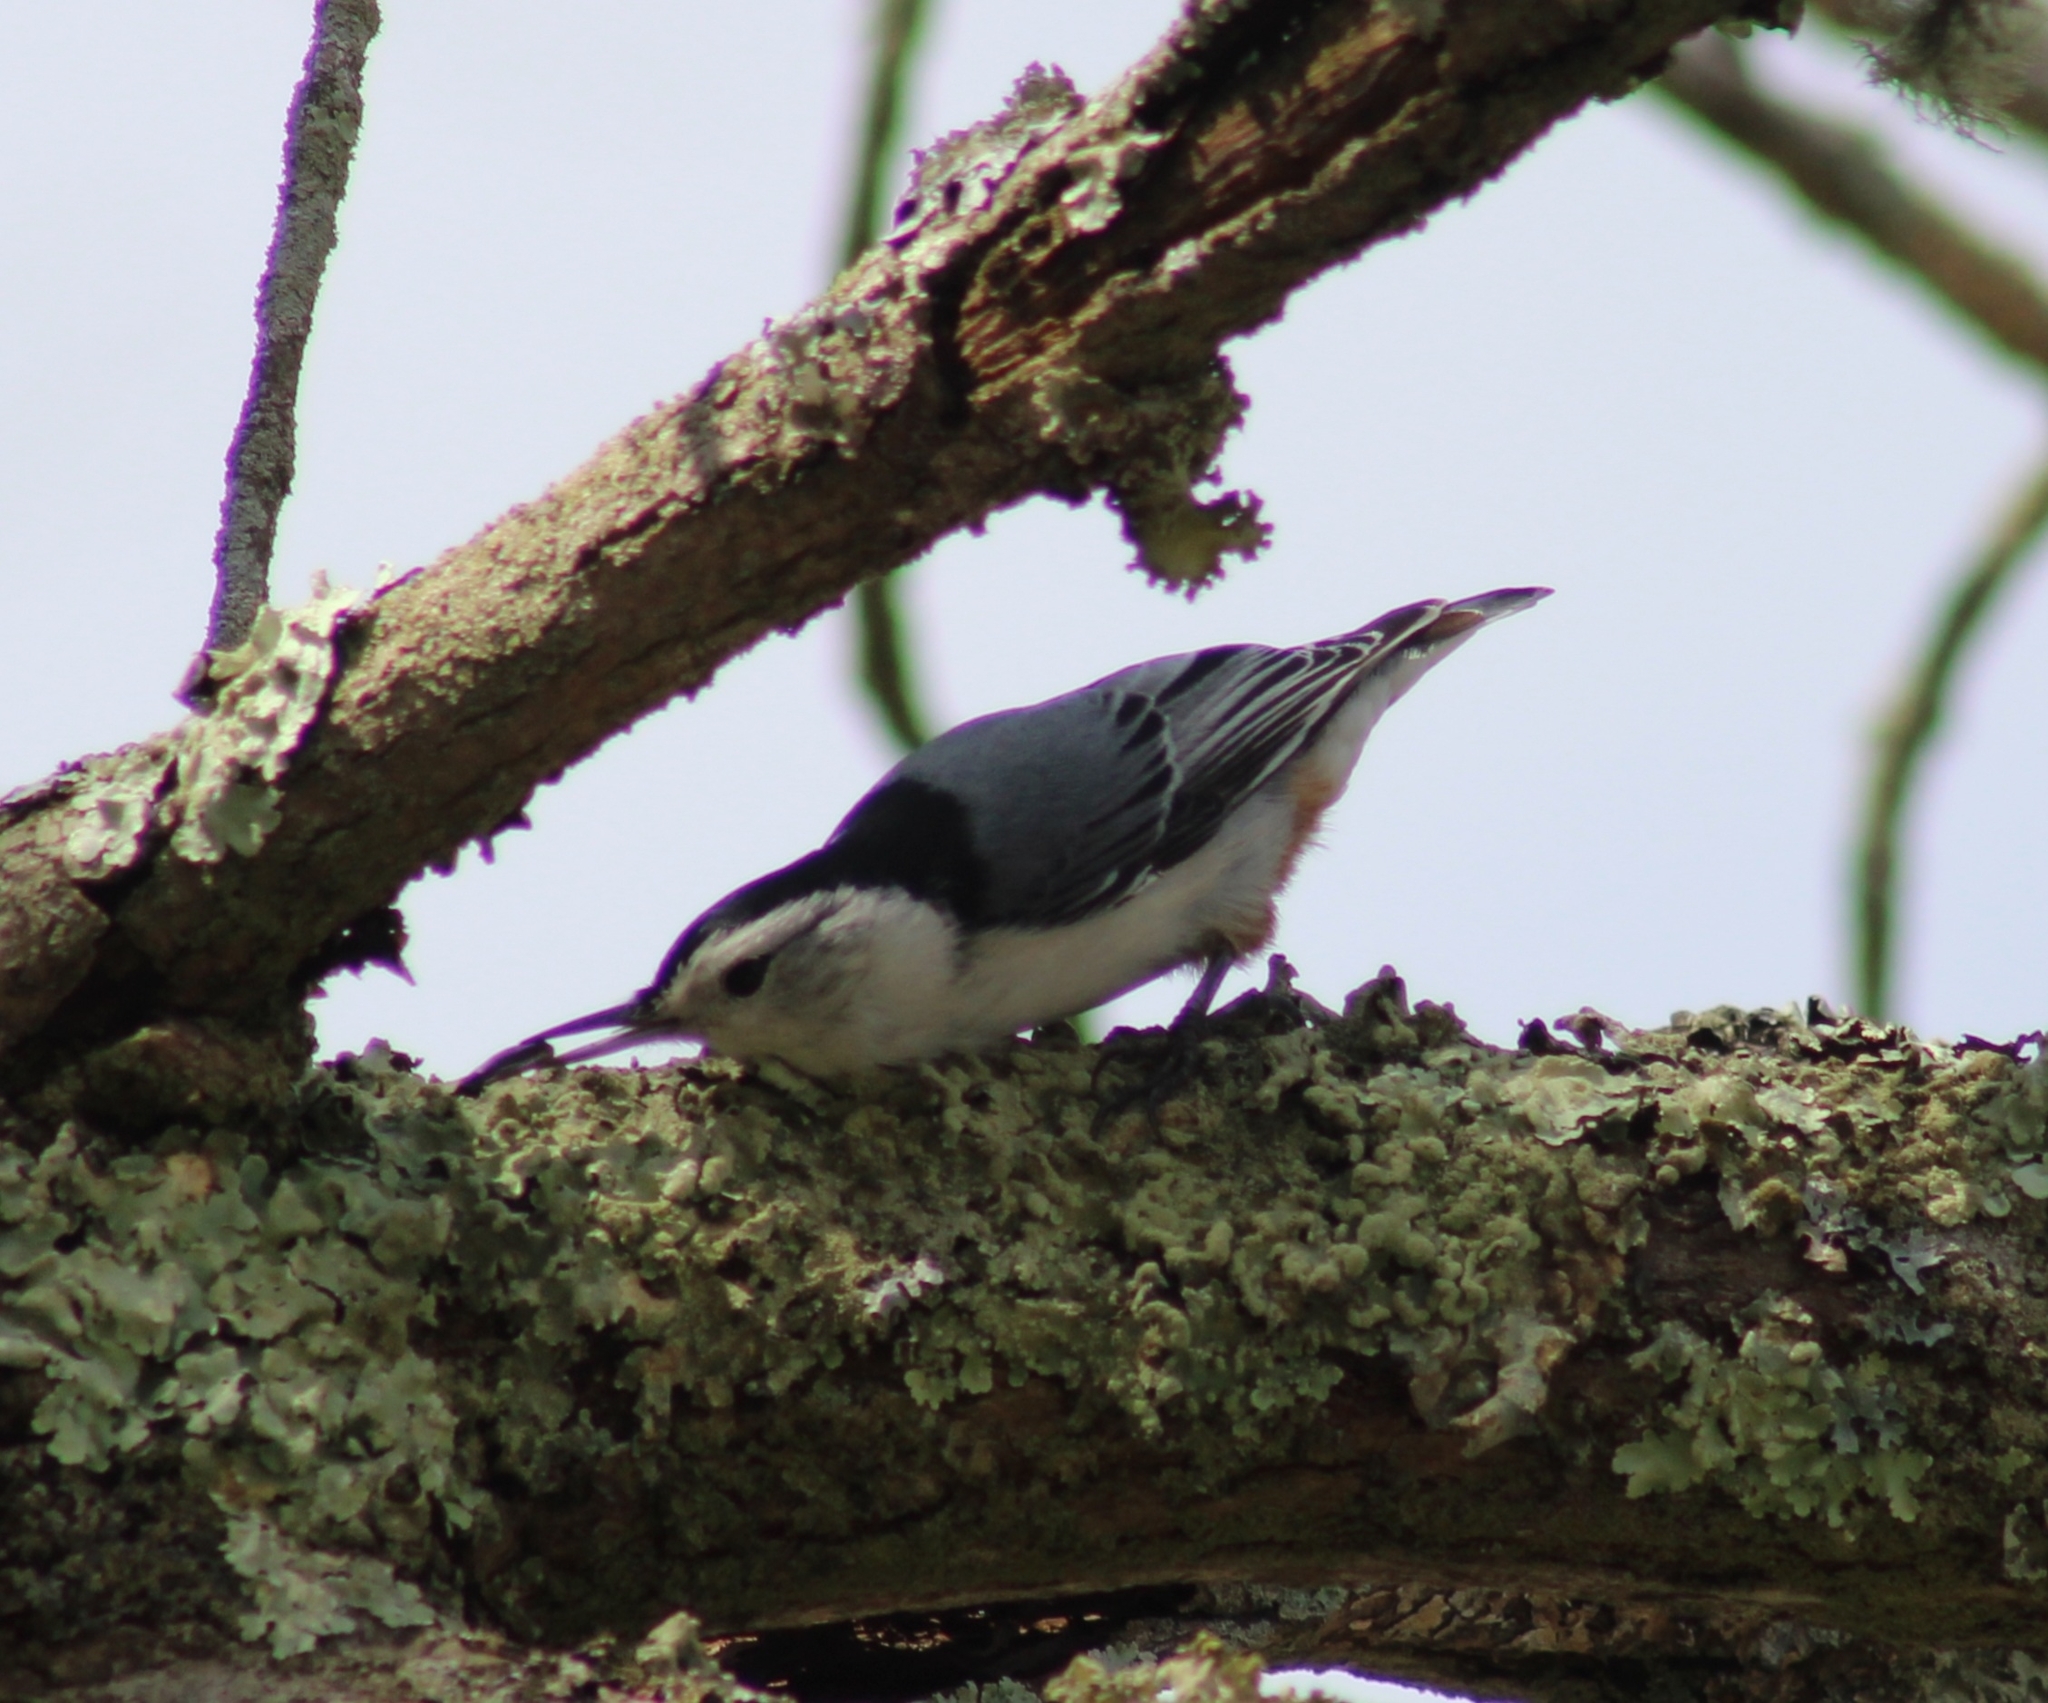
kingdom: Animalia
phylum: Chordata
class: Aves
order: Passeriformes
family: Sittidae
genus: Sitta
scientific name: Sitta carolinensis
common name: White-breasted nuthatch
